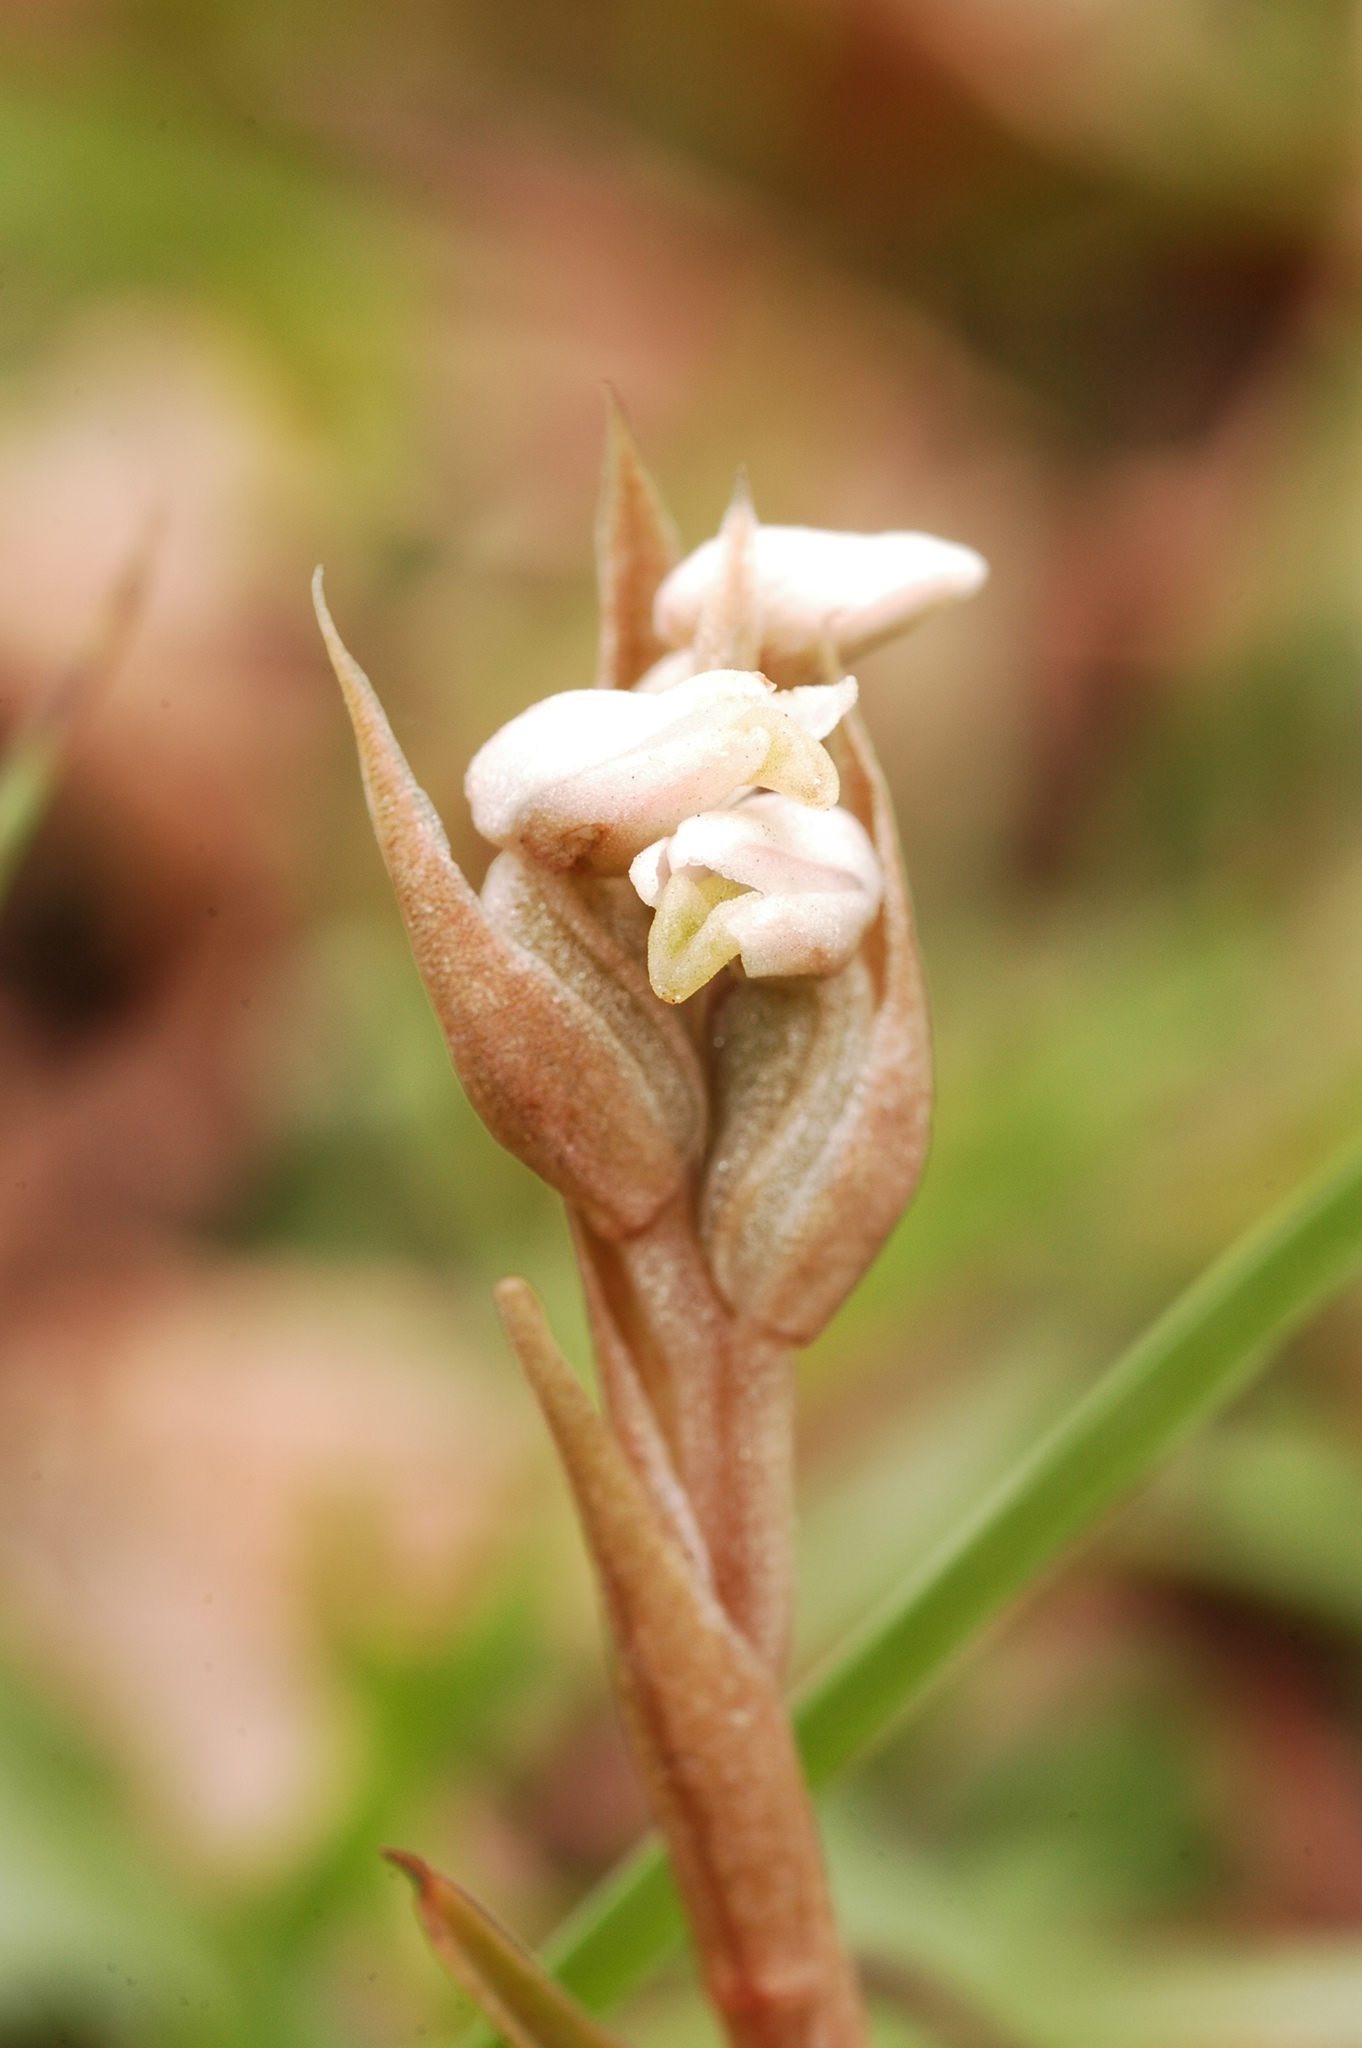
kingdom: Plantae
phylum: Tracheophyta
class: Liliopsida
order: Asparagales
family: Orchidaceae
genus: Zeuxine
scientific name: Zeuxine strateumatica
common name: Soldier's orchid
